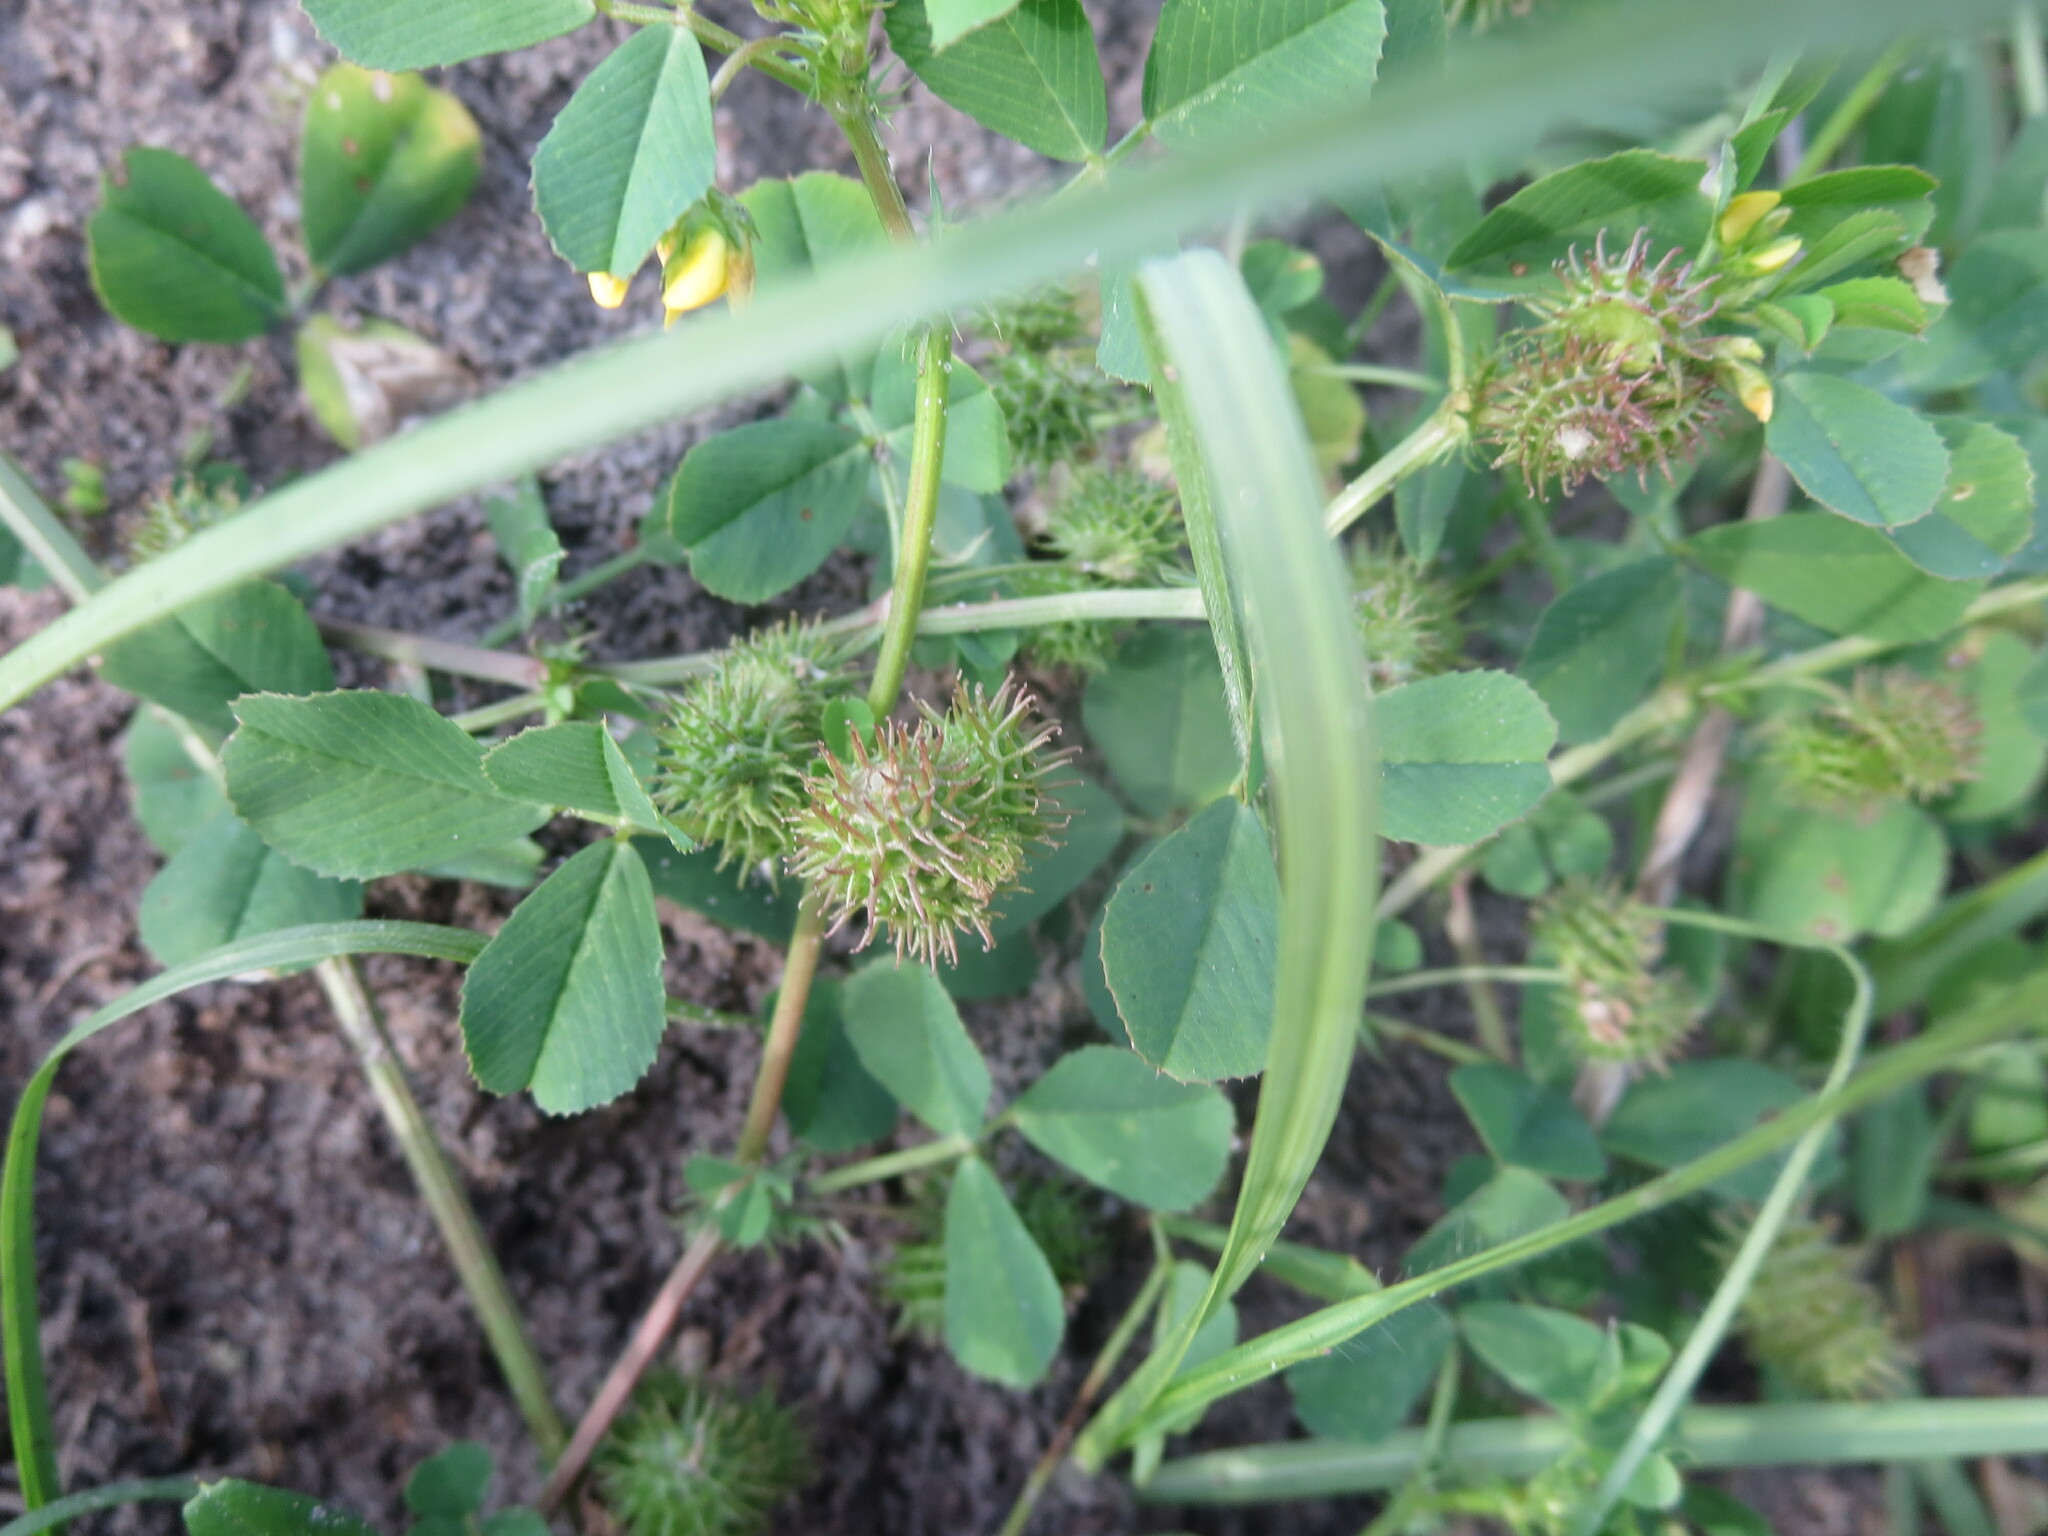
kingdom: Plantae
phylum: Tracheophyta
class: Magnoliopsida
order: Fabales
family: Fabaceae
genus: Medicago
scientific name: Medicago polymorpha
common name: Burclover
